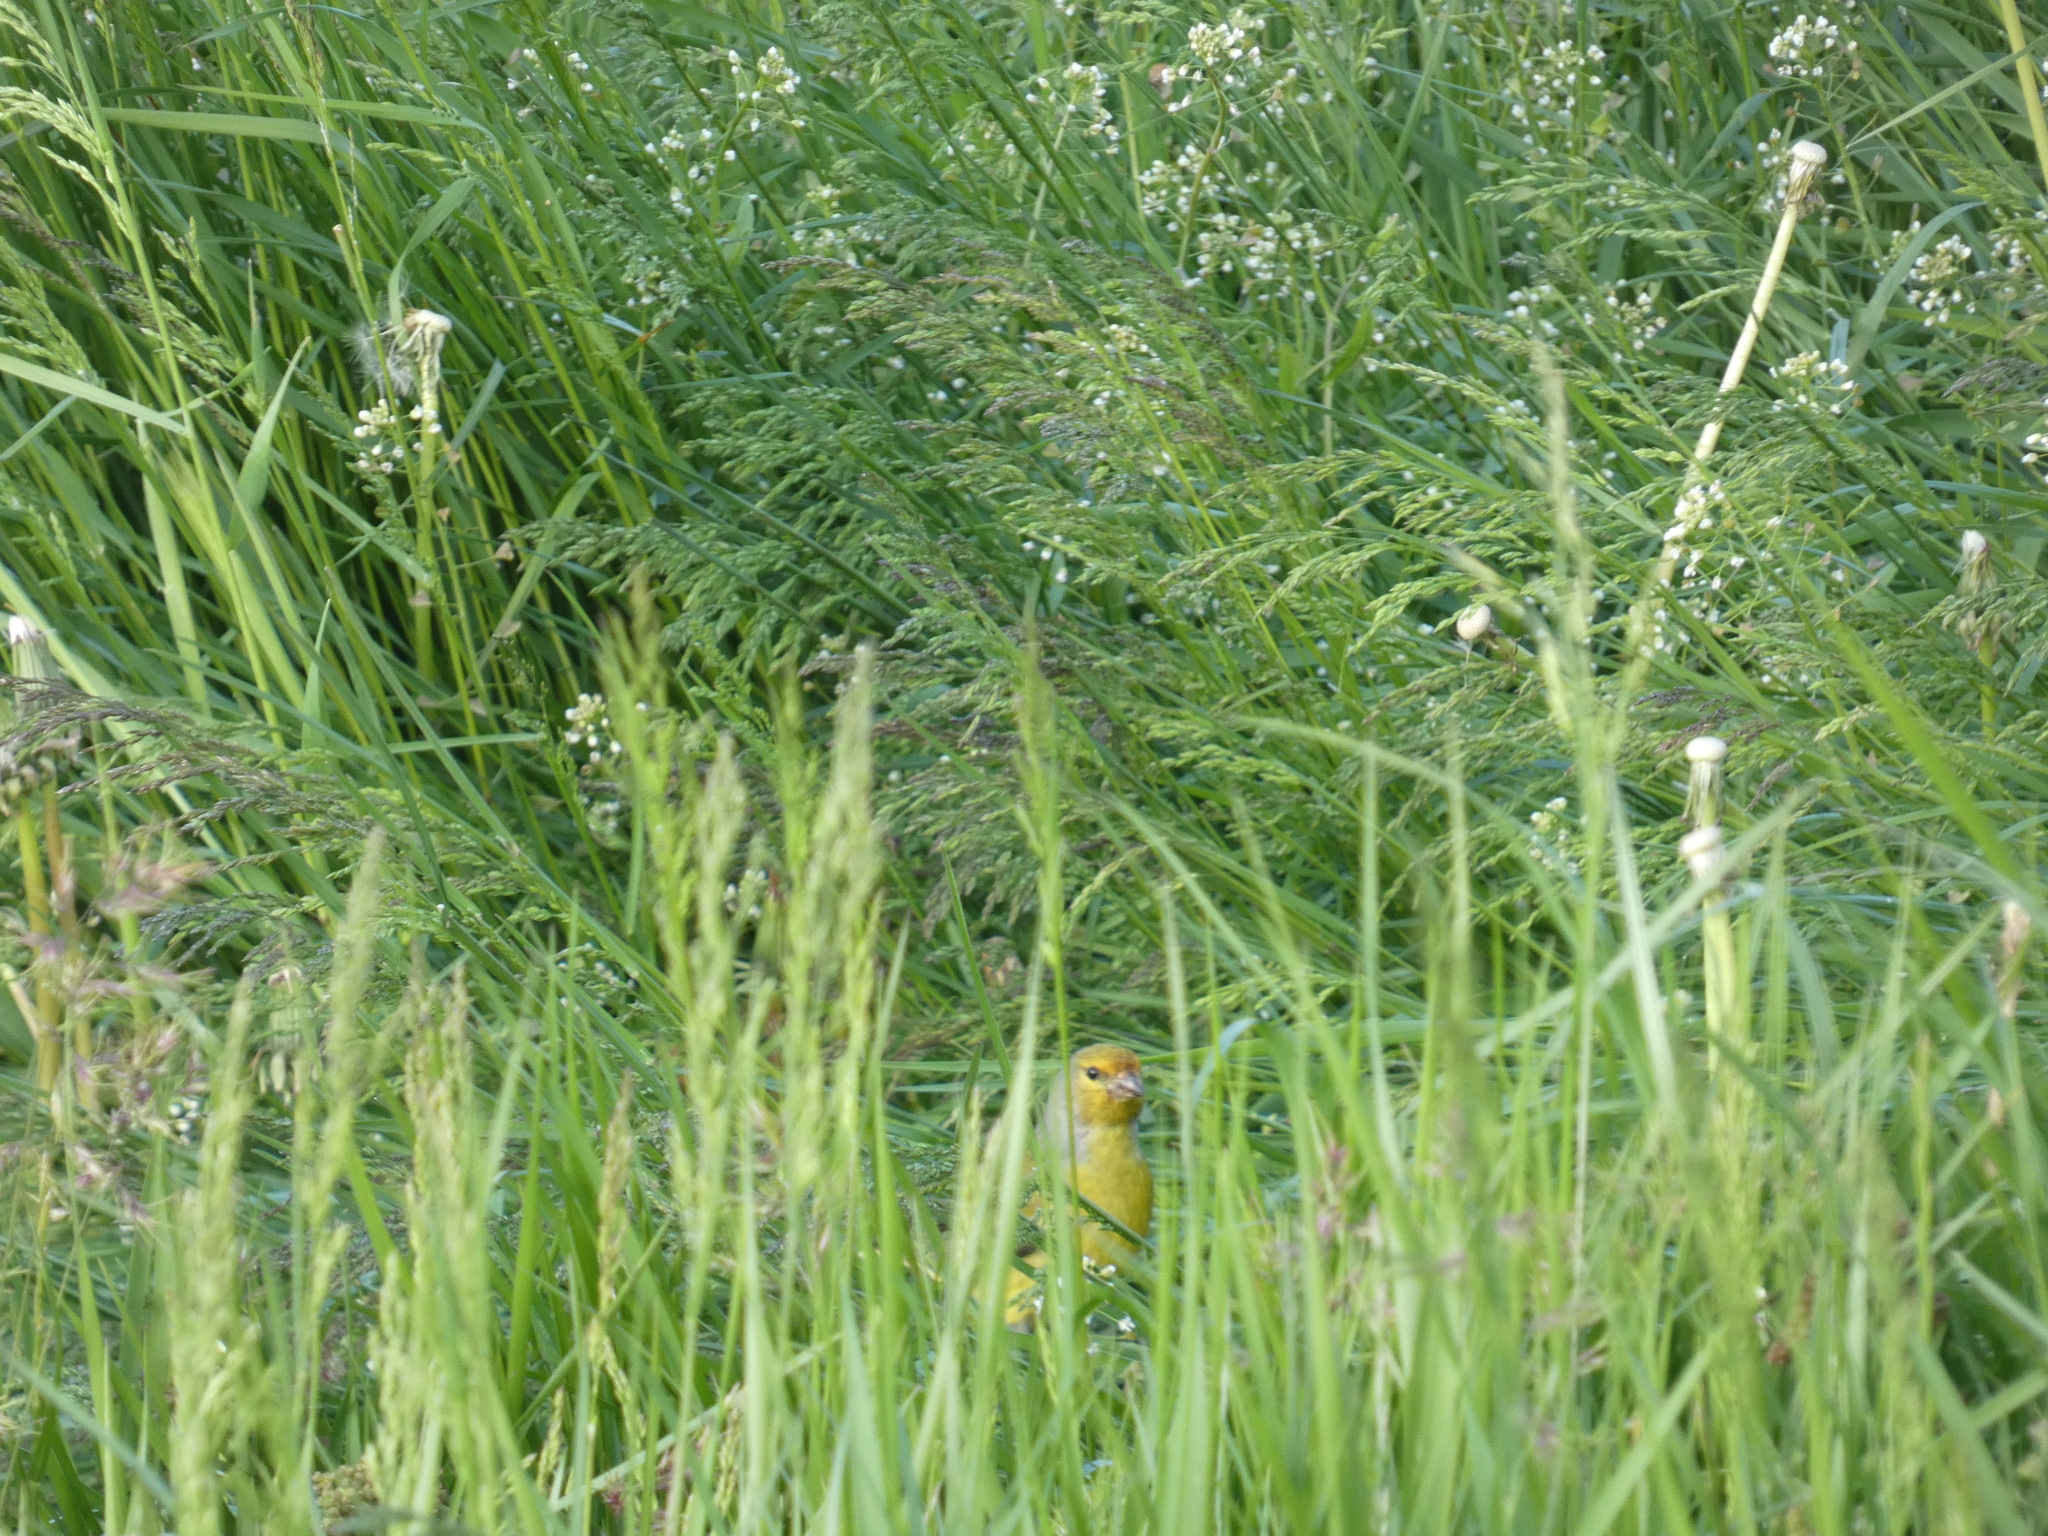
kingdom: Animalia
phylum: Chordata
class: Aves
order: Passeriformes
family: Fringillidae
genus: Carduelis
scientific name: Carduelis citrinella
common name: Citril finch
